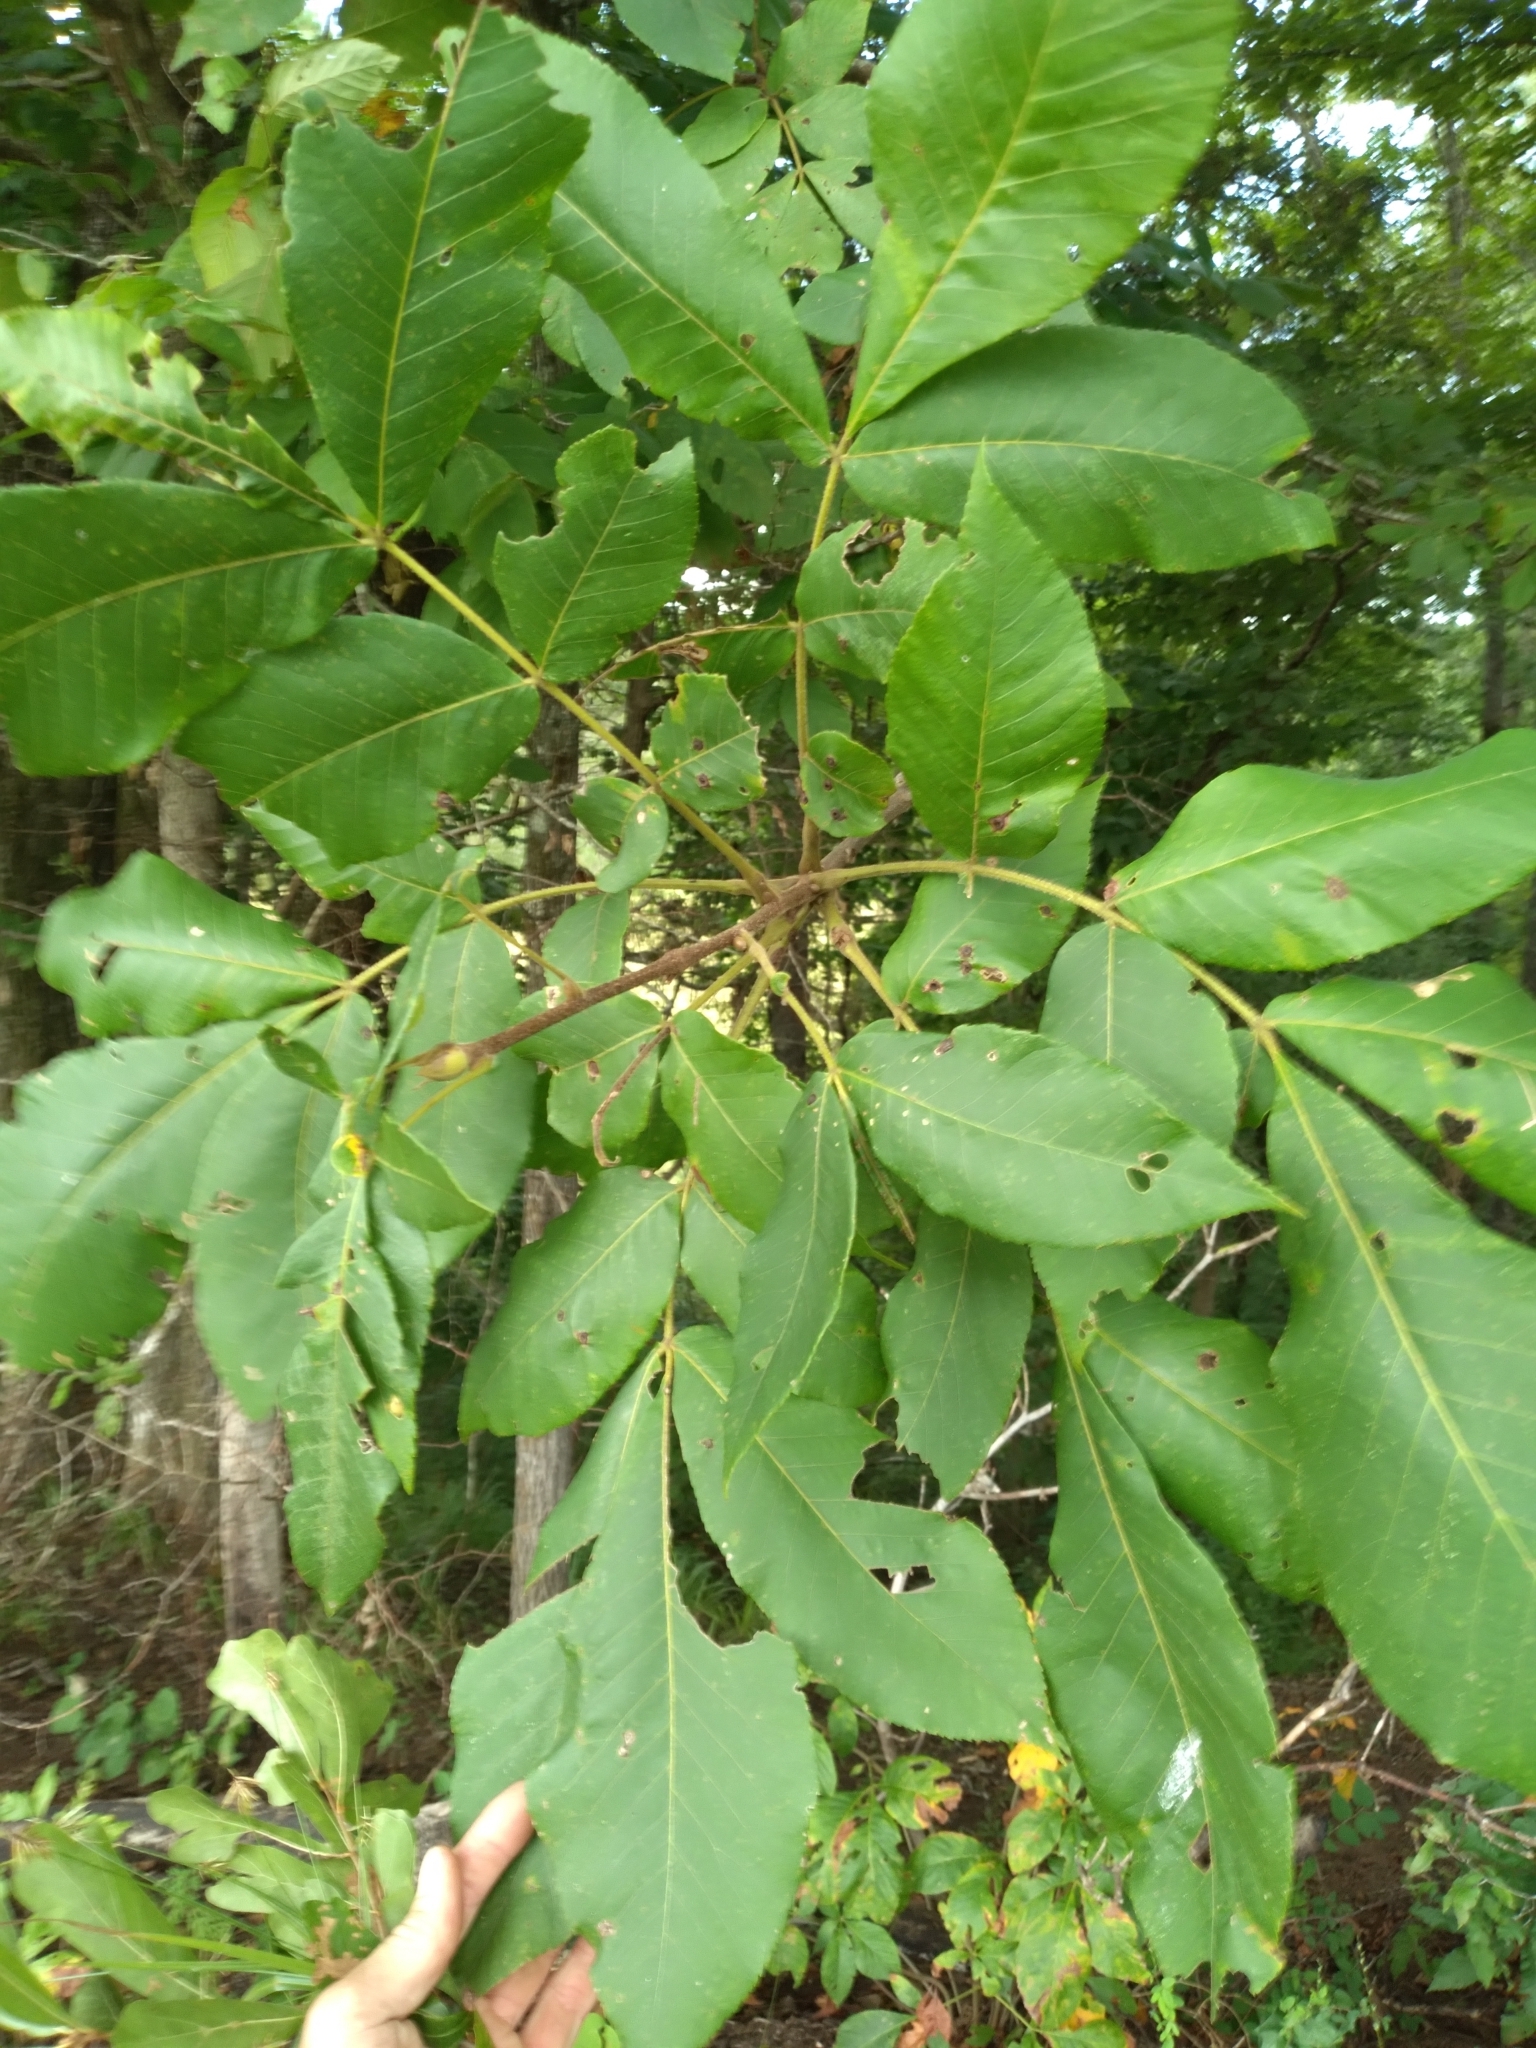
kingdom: Plantae
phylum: Tracheophyta
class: Magnoliopsida
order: Fagales
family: Juglandaceae
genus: Carya
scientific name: Carya alba
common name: Mockernut hickory
